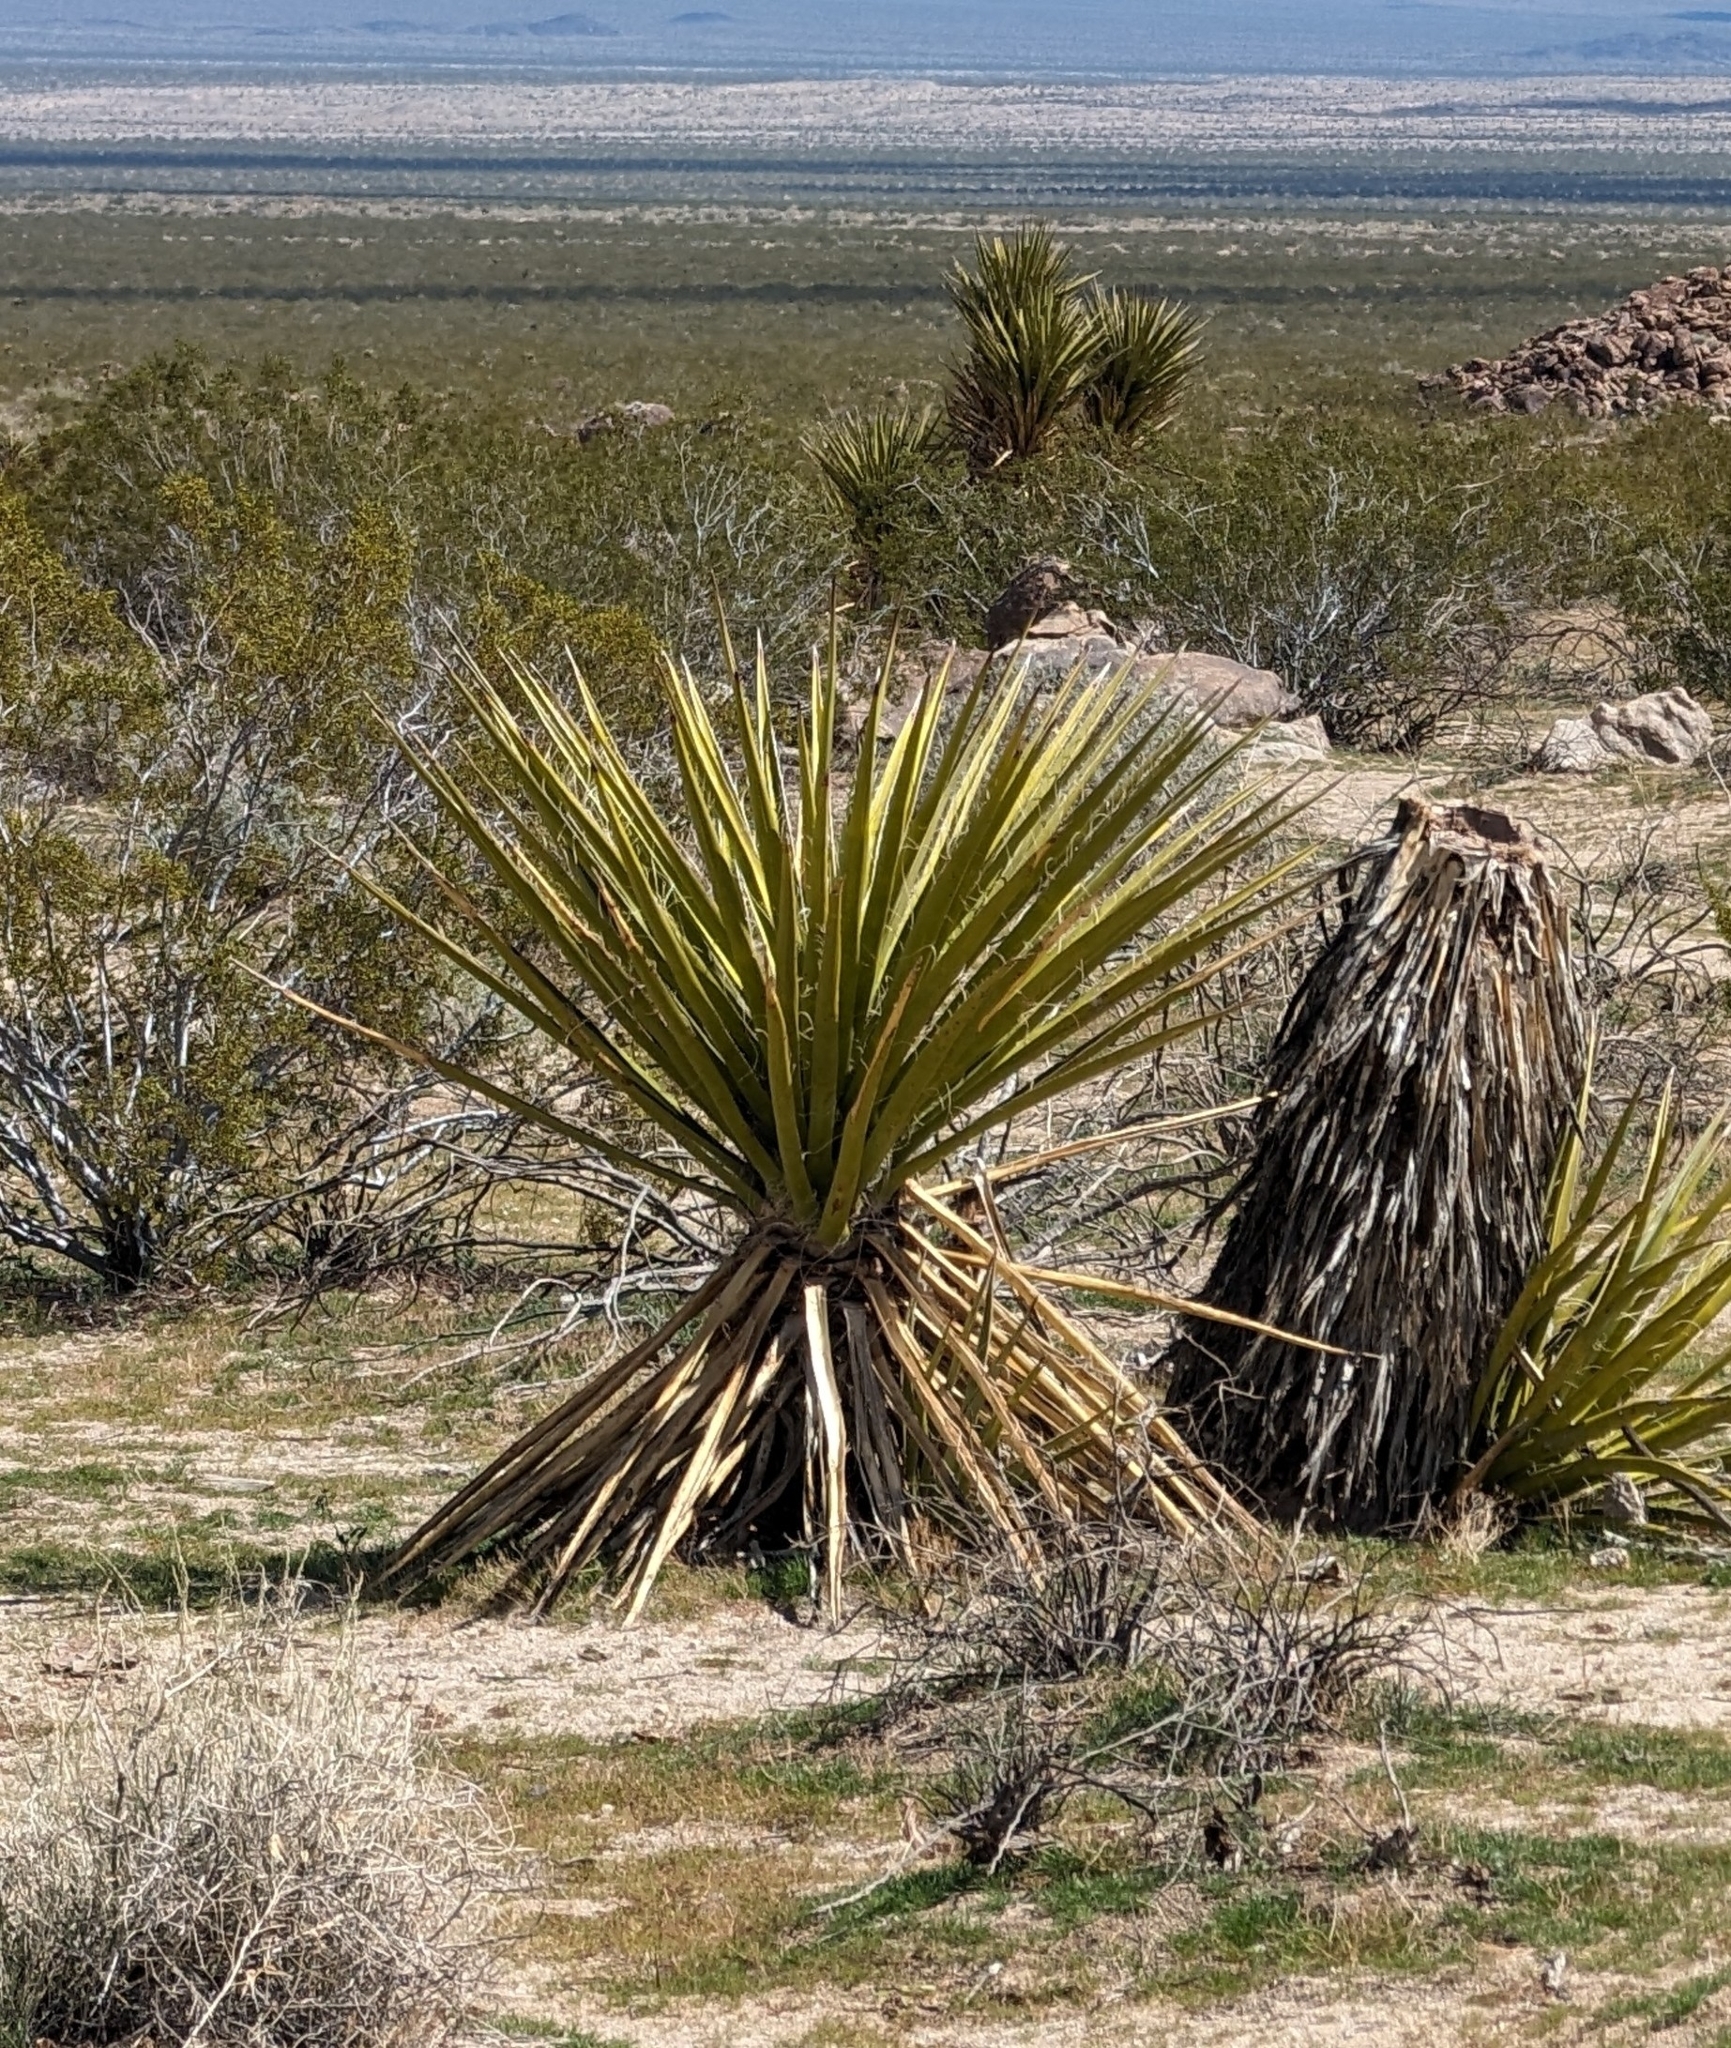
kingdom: Plantae
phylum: Tracheophyta
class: Liliopsida
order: Asparagales
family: Asparagaceae
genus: Yucca
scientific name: Yucca schidigera
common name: Mojave yucca
